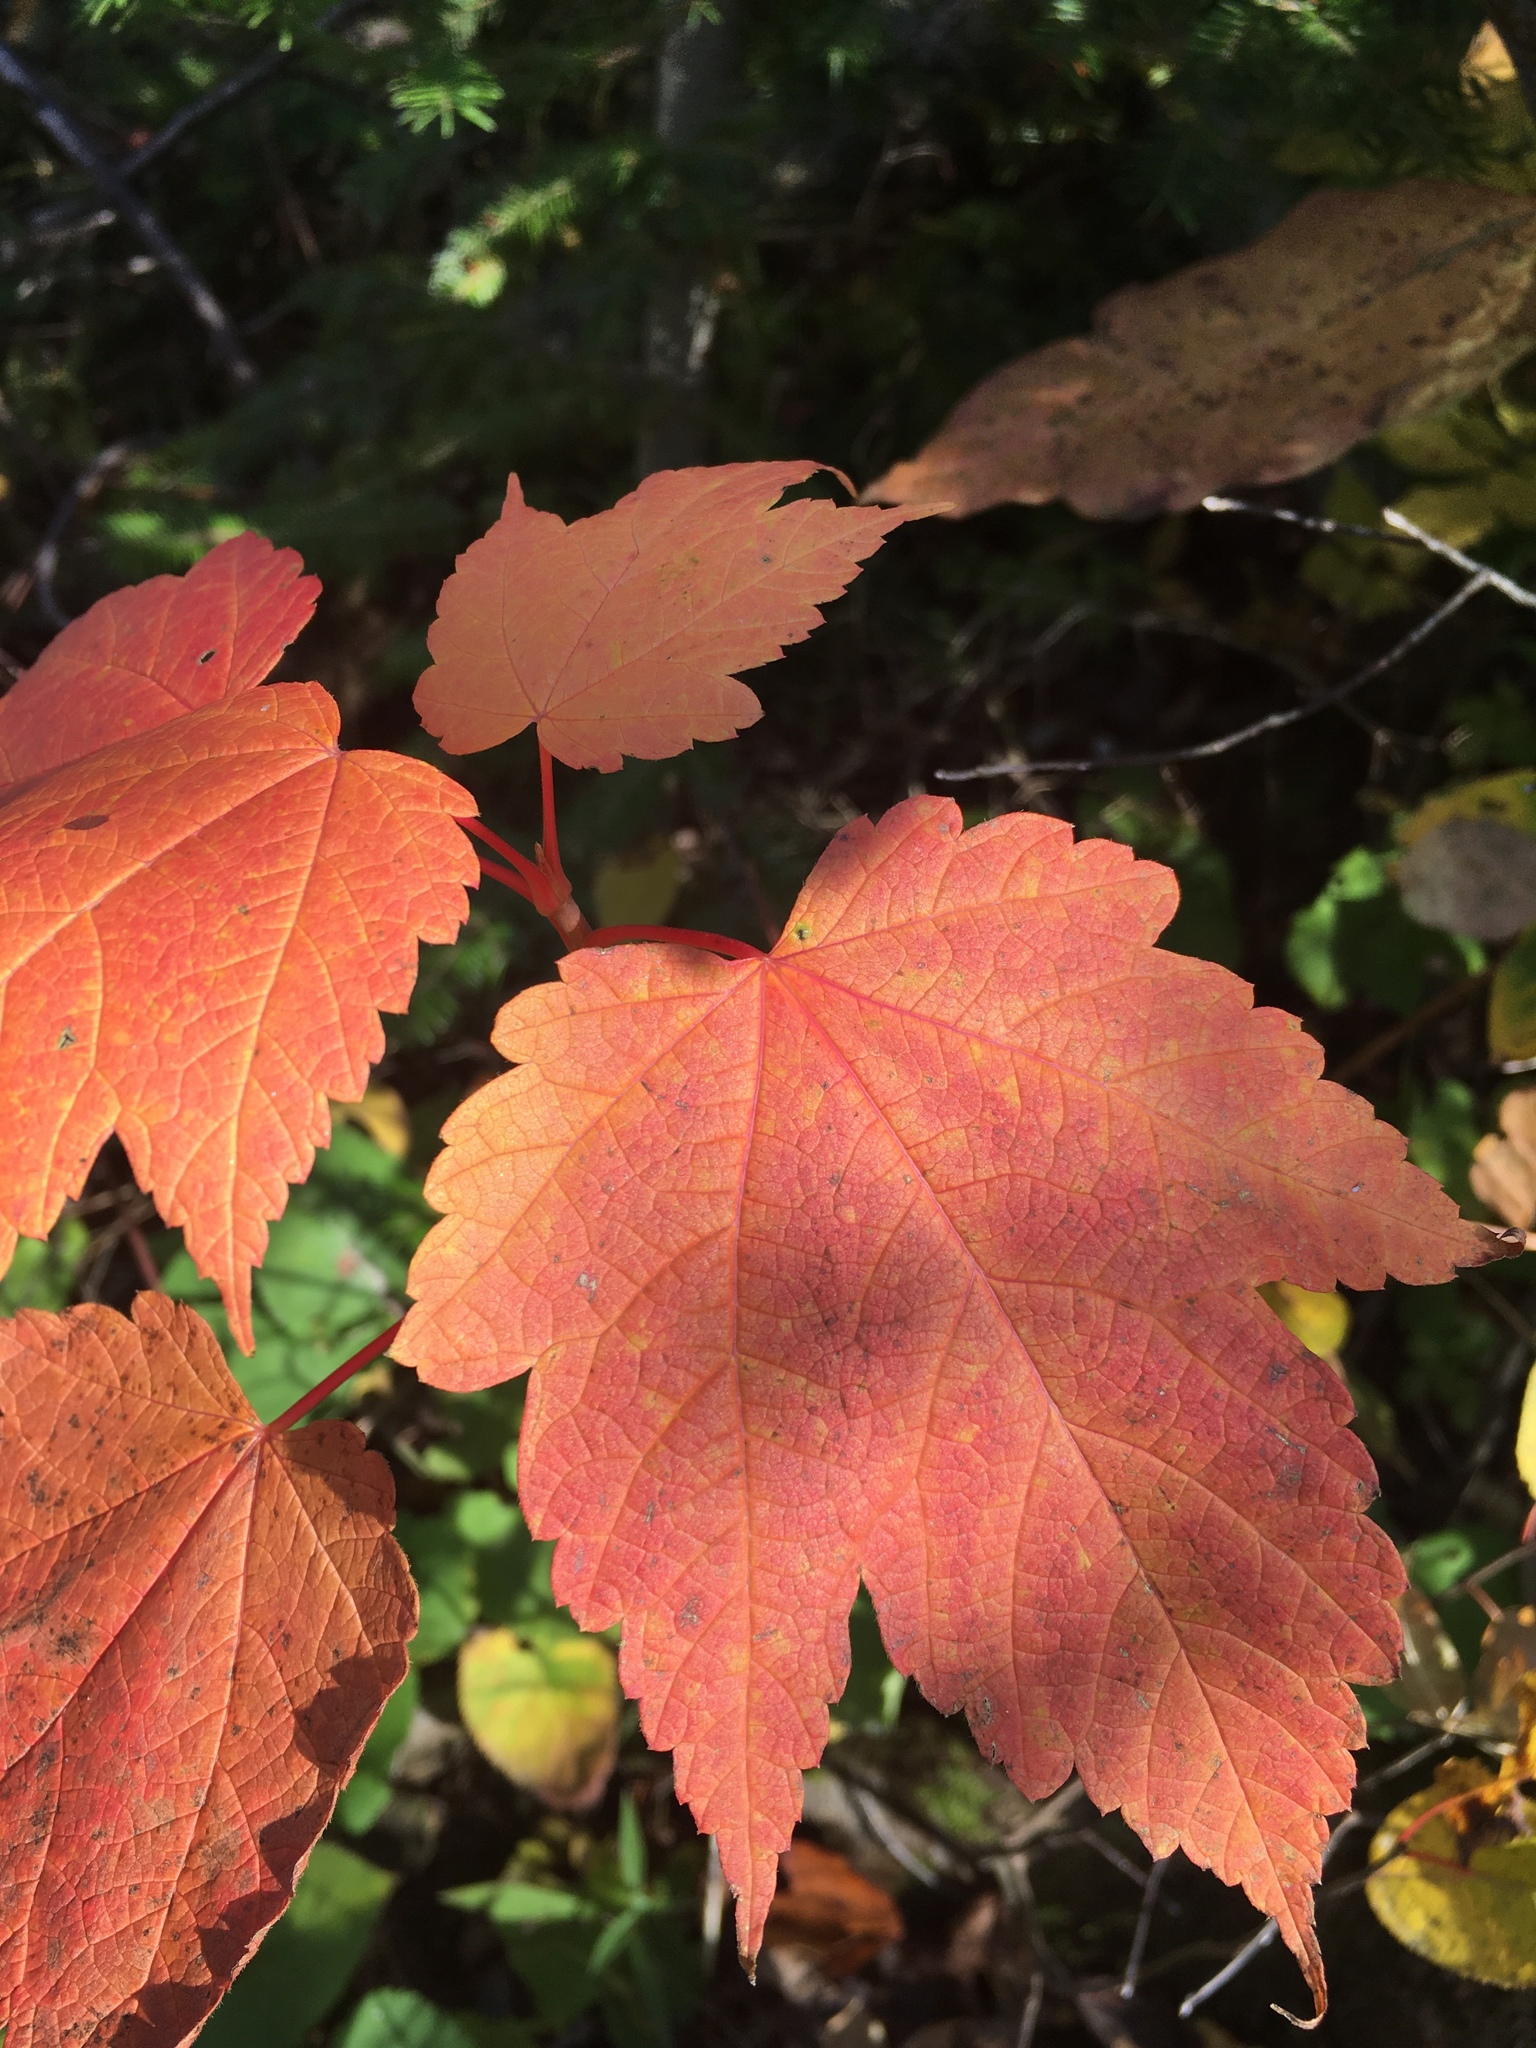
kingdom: Plantae
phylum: Tracheophyta
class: Magnoliopsida
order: Sapindales
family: Sapindaceae
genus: Acer
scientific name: Acer spicatum
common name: Mountain maple
